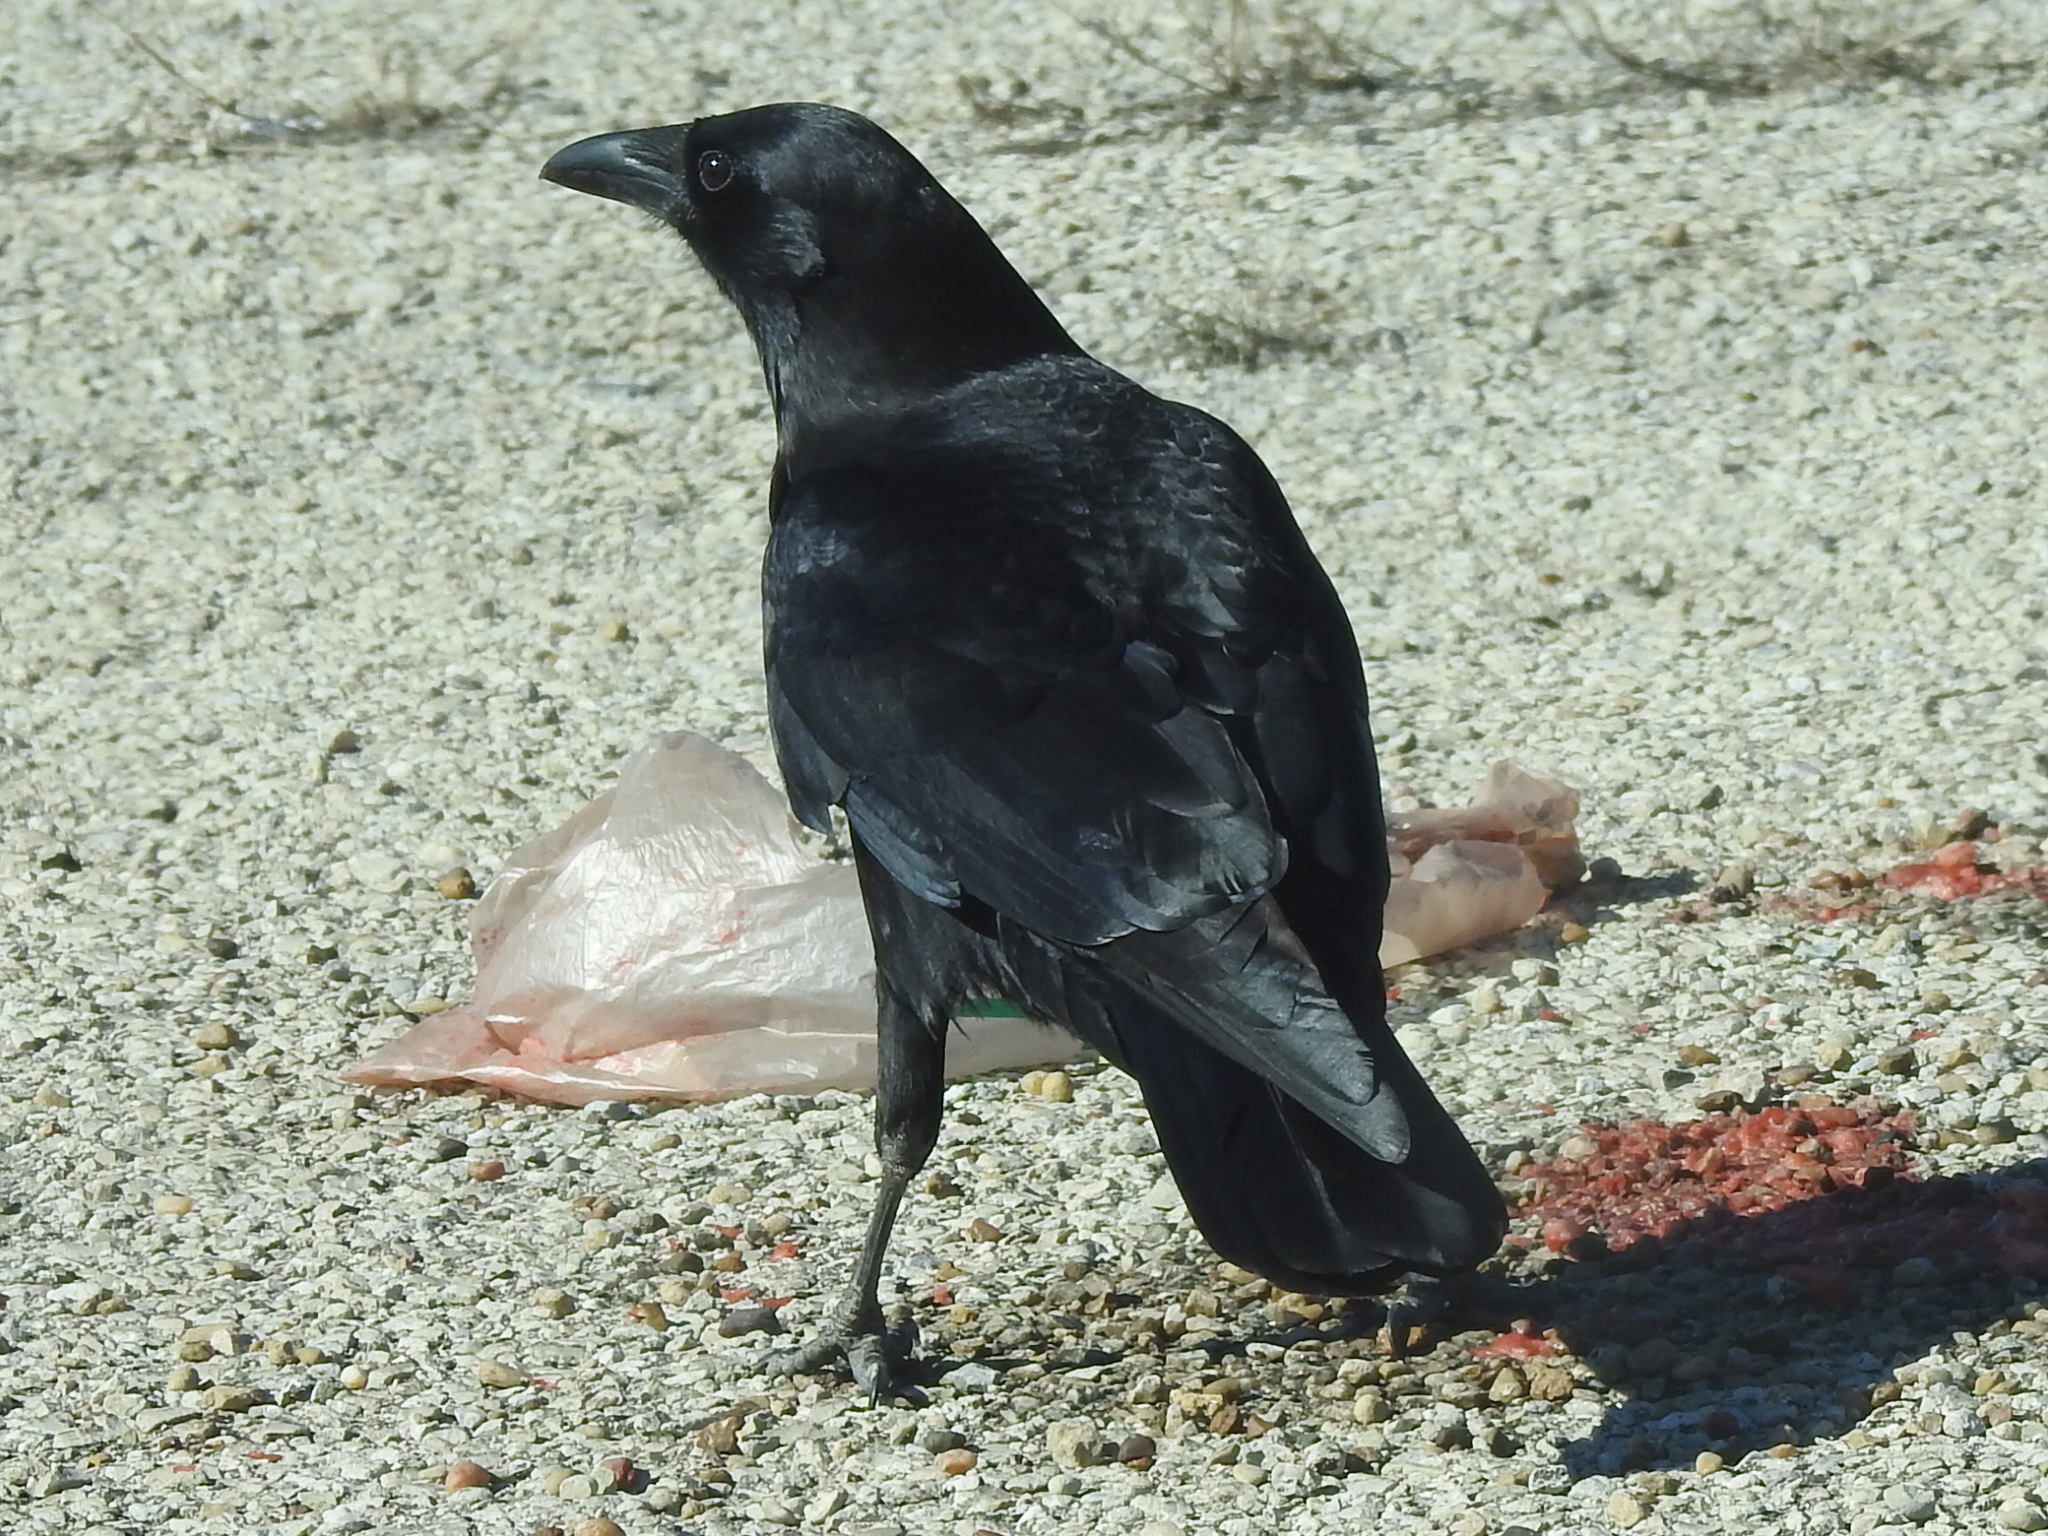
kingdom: Animalia
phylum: Chordata
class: Aves
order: Passeriformes
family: Corvidae
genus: Corvus
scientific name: Corvus brachyrhynchos
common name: American crow
